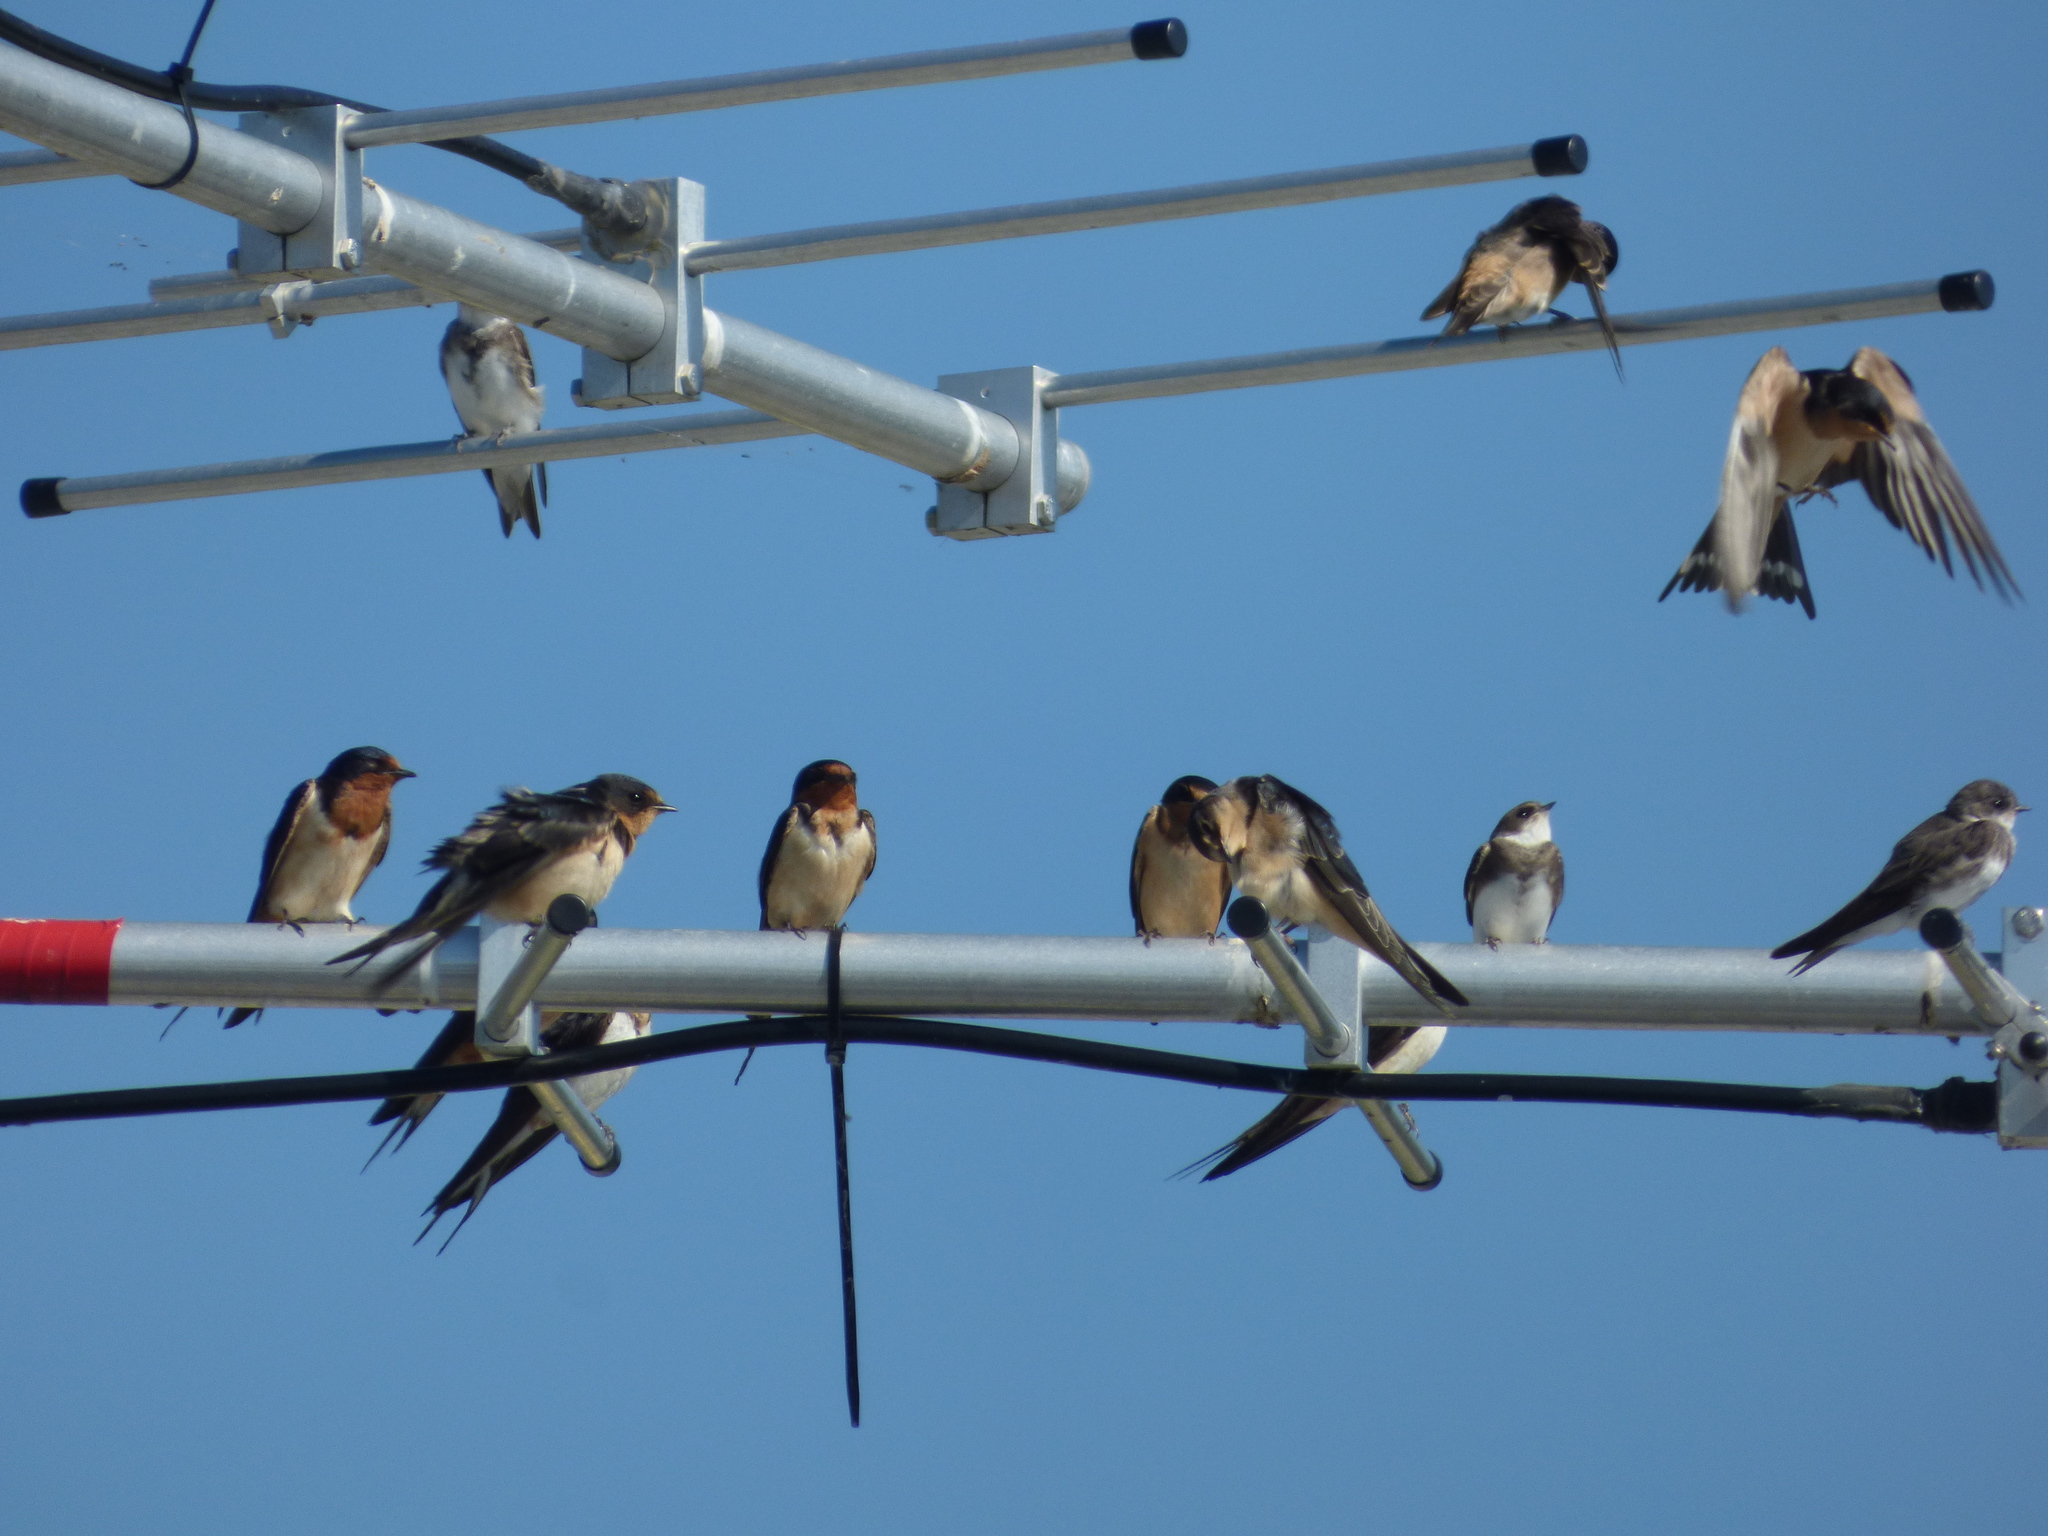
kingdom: Animalia
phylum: Chordata
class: Aves
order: Passeriformes
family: Hirundinidae
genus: Hirundo
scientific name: Hirundo rustica
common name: Barn swallow
